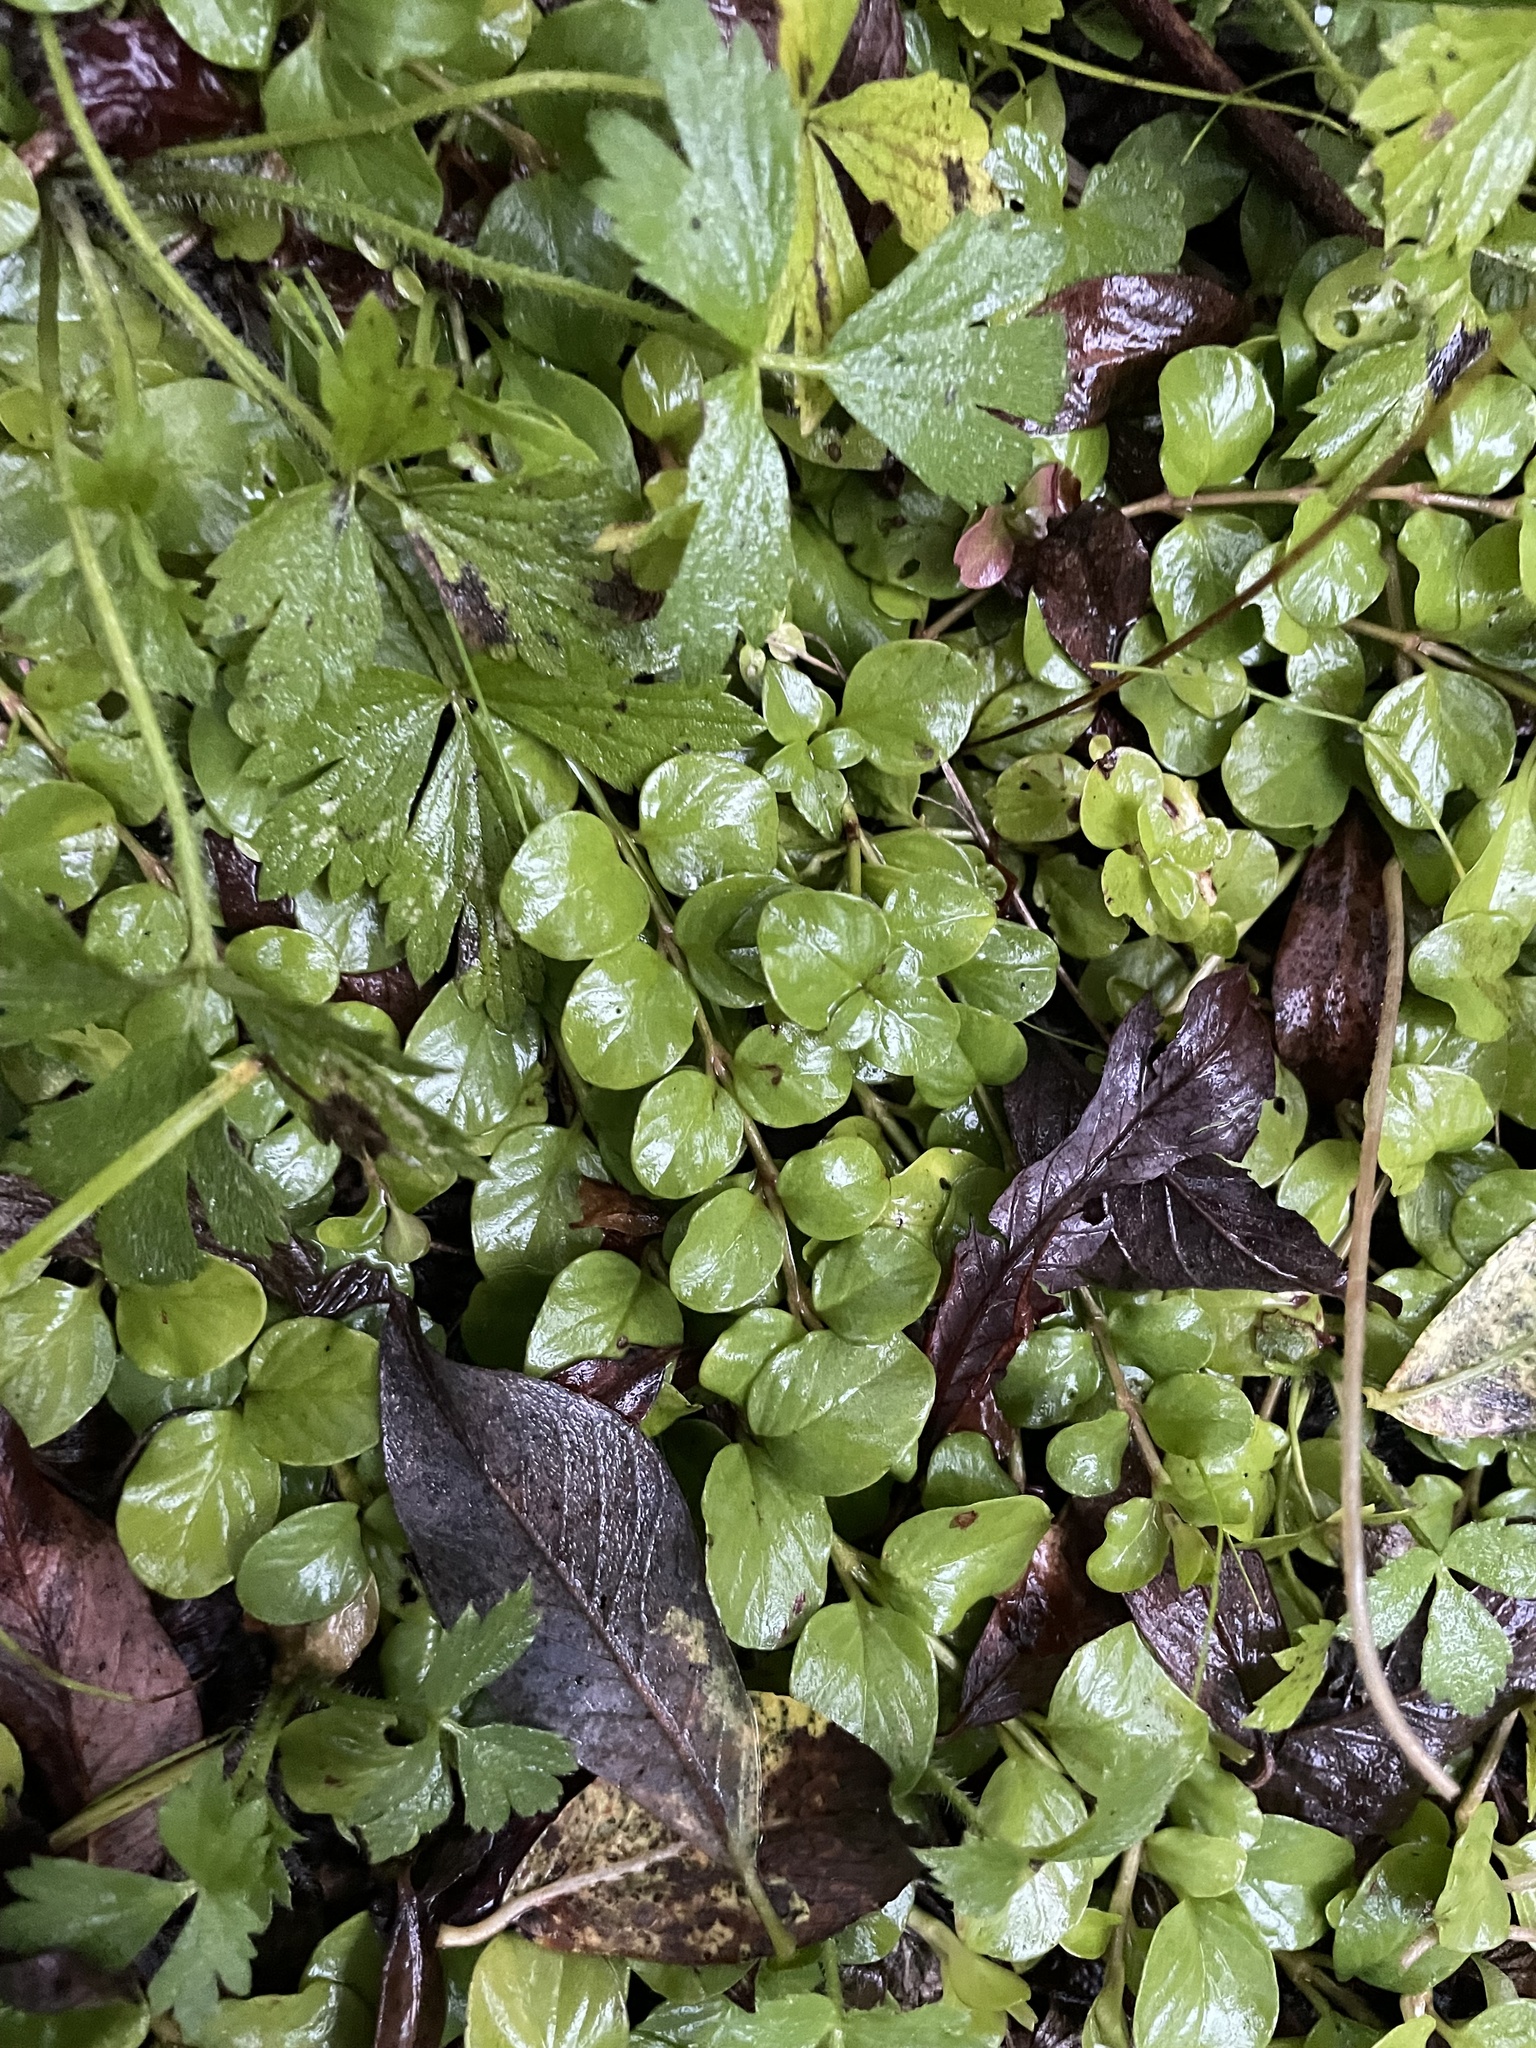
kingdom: Plantae
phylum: Tracheophyta
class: Magnoliopsida
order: Ericales
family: Primulaceae
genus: Lysimachia
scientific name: Lysimachia nummularia
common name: Moneywort
